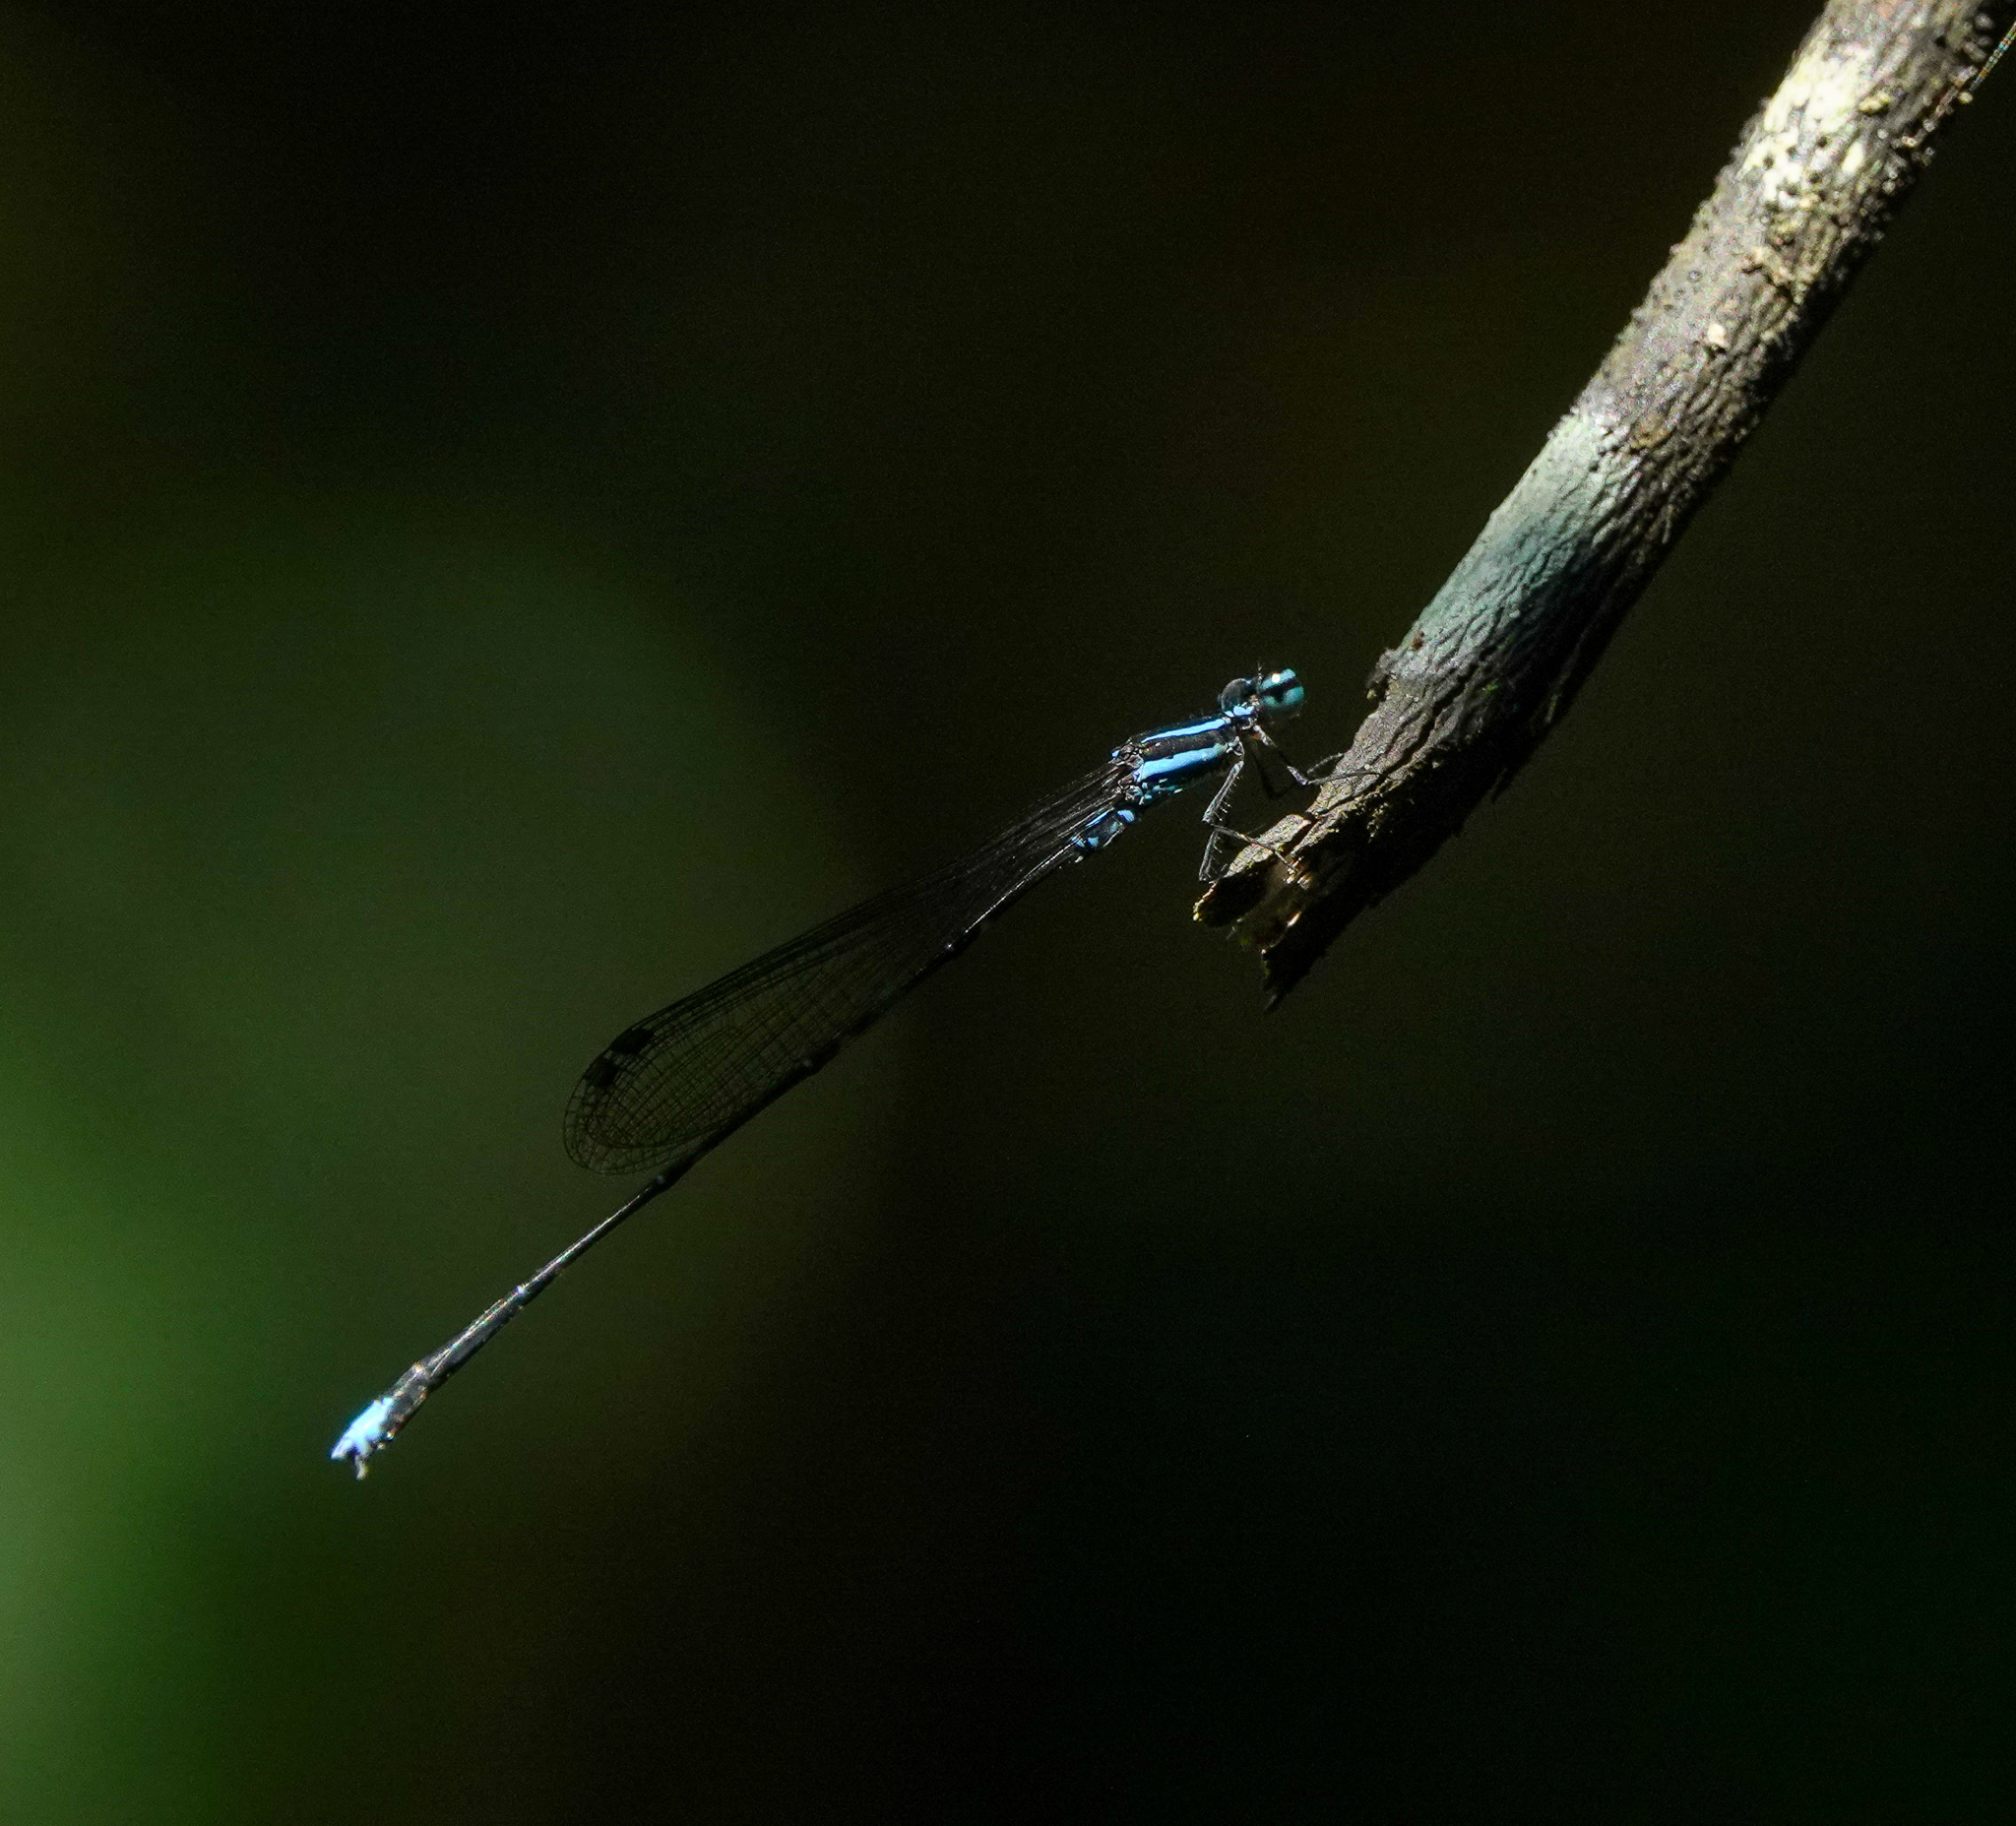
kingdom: Animalia
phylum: Arthropoda
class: Insecta
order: Odonata
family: Platycnemididae
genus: Elattoneura
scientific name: Elattoneura campioni
